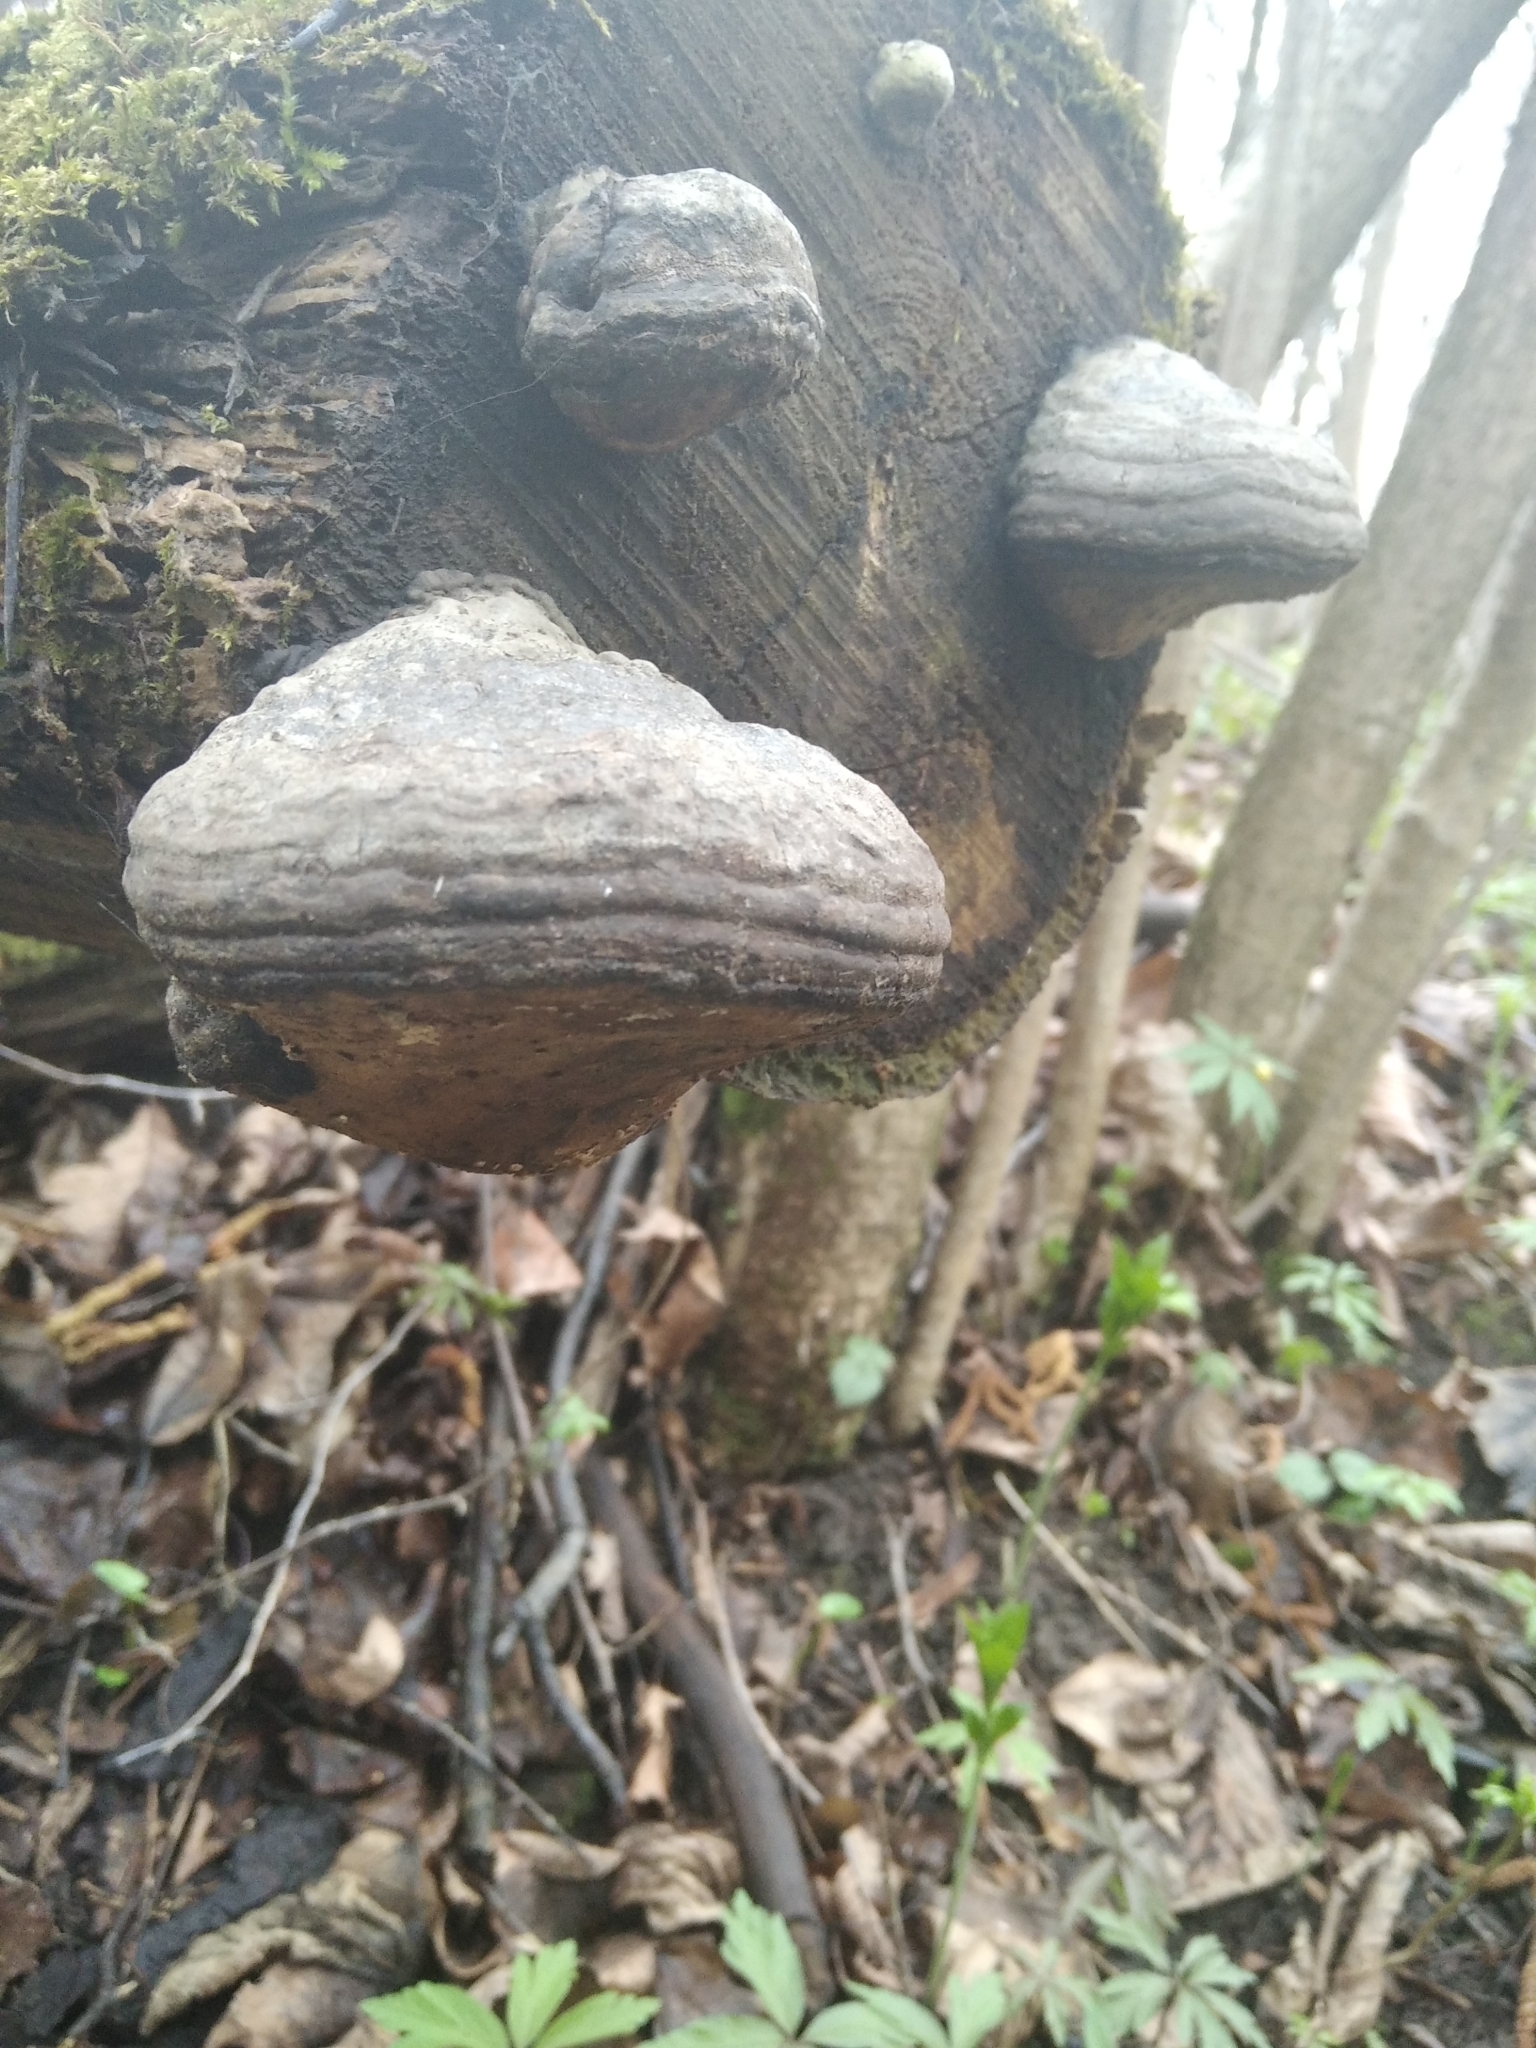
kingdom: Fungi
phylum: Basidiomycota
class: Agaricomycetes
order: Polyporales
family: Polyporaceae
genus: Fomes
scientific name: Fomes fomentarius
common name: Hoof fungus
